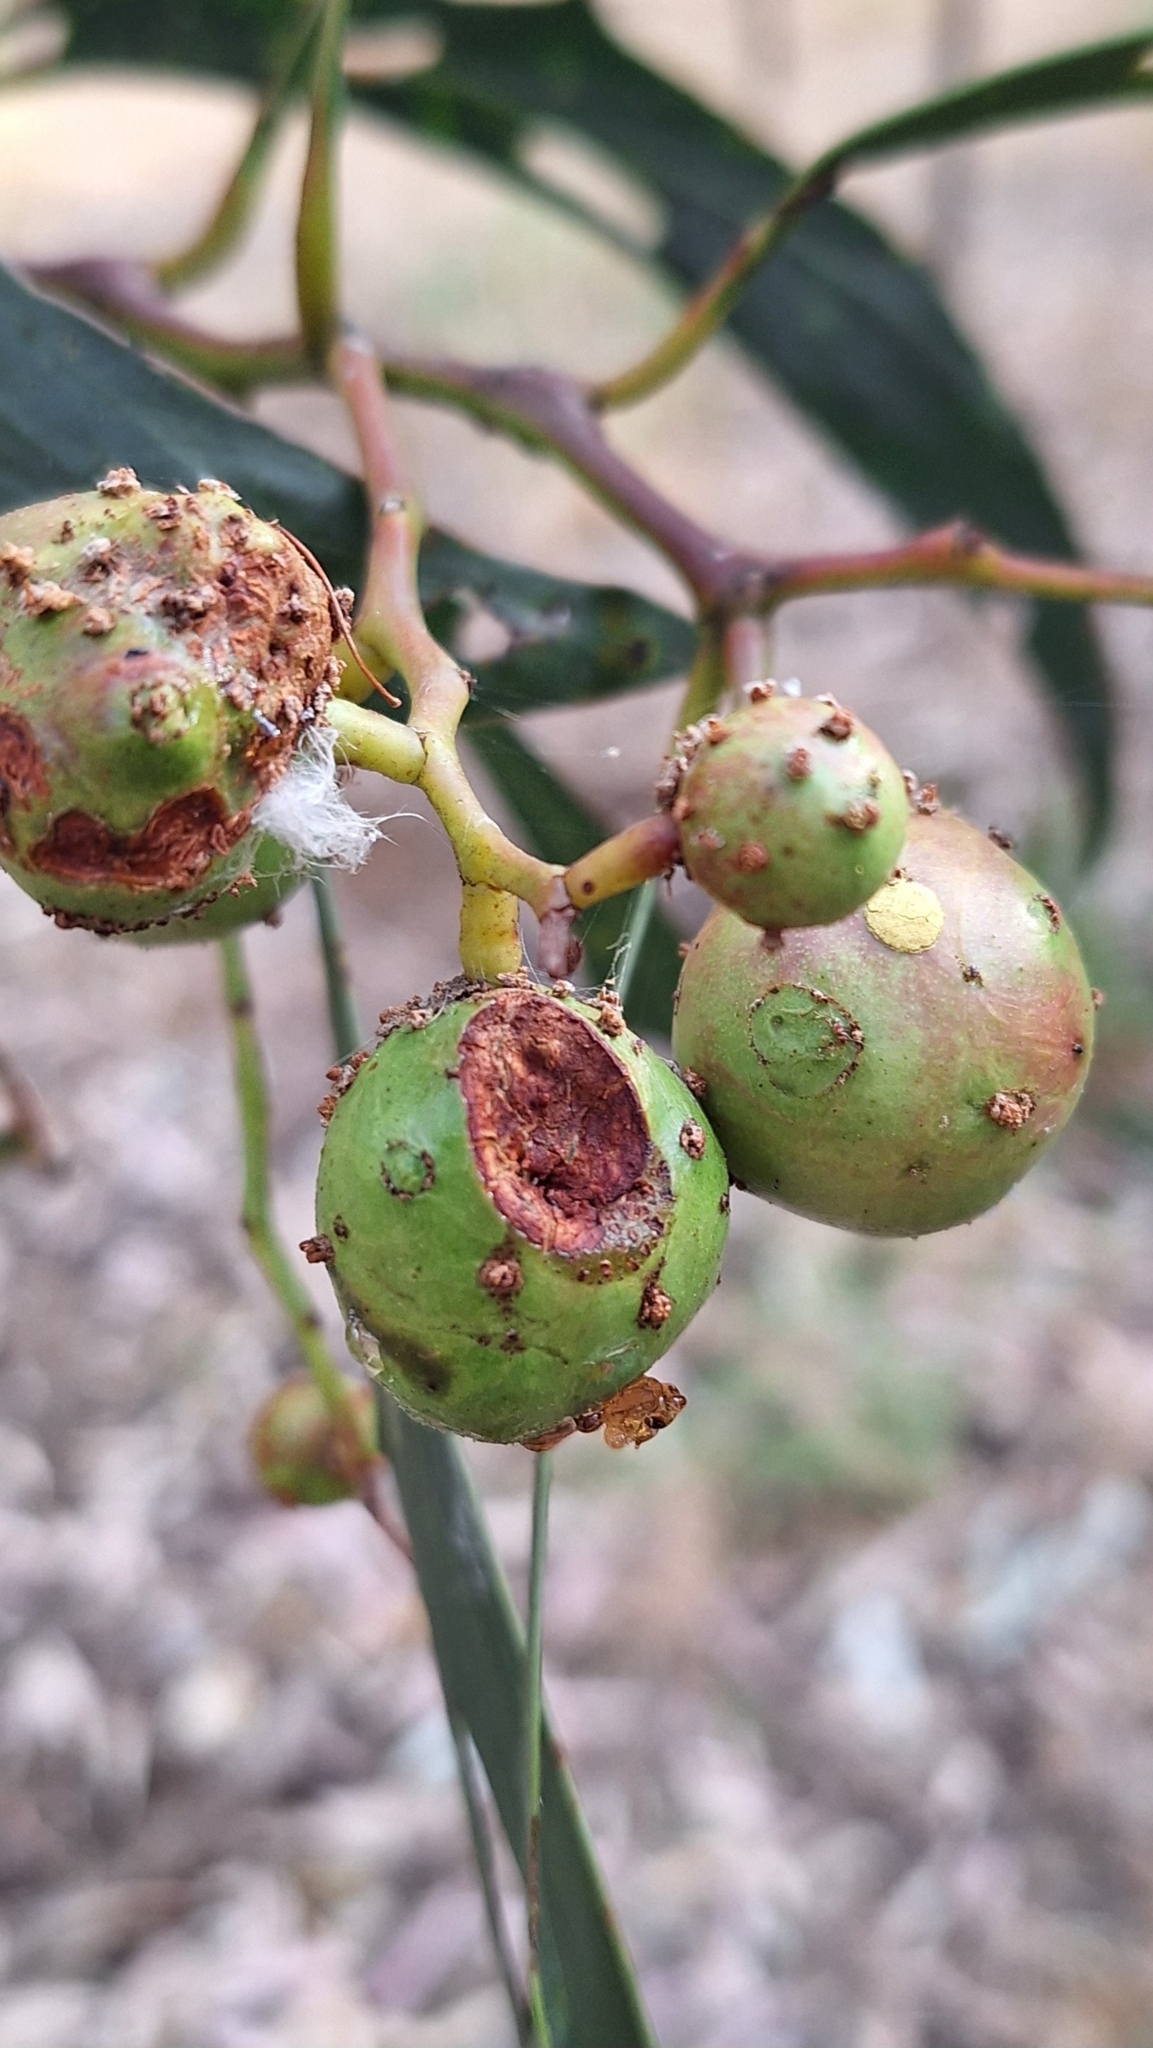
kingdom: Animalia
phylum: Arthropoda
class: Insecta
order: Hymenoptera
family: Pteromalidae
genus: Trichilogaster
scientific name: Trichilogaster signiventris
